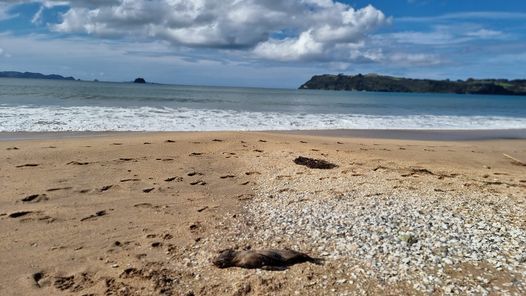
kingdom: Animalia
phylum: Chordata
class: Mammalia
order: Carnivora
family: Otariidae
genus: Arctocephalus
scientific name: Arctocephalus forsteri
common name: New zealand fur seal
